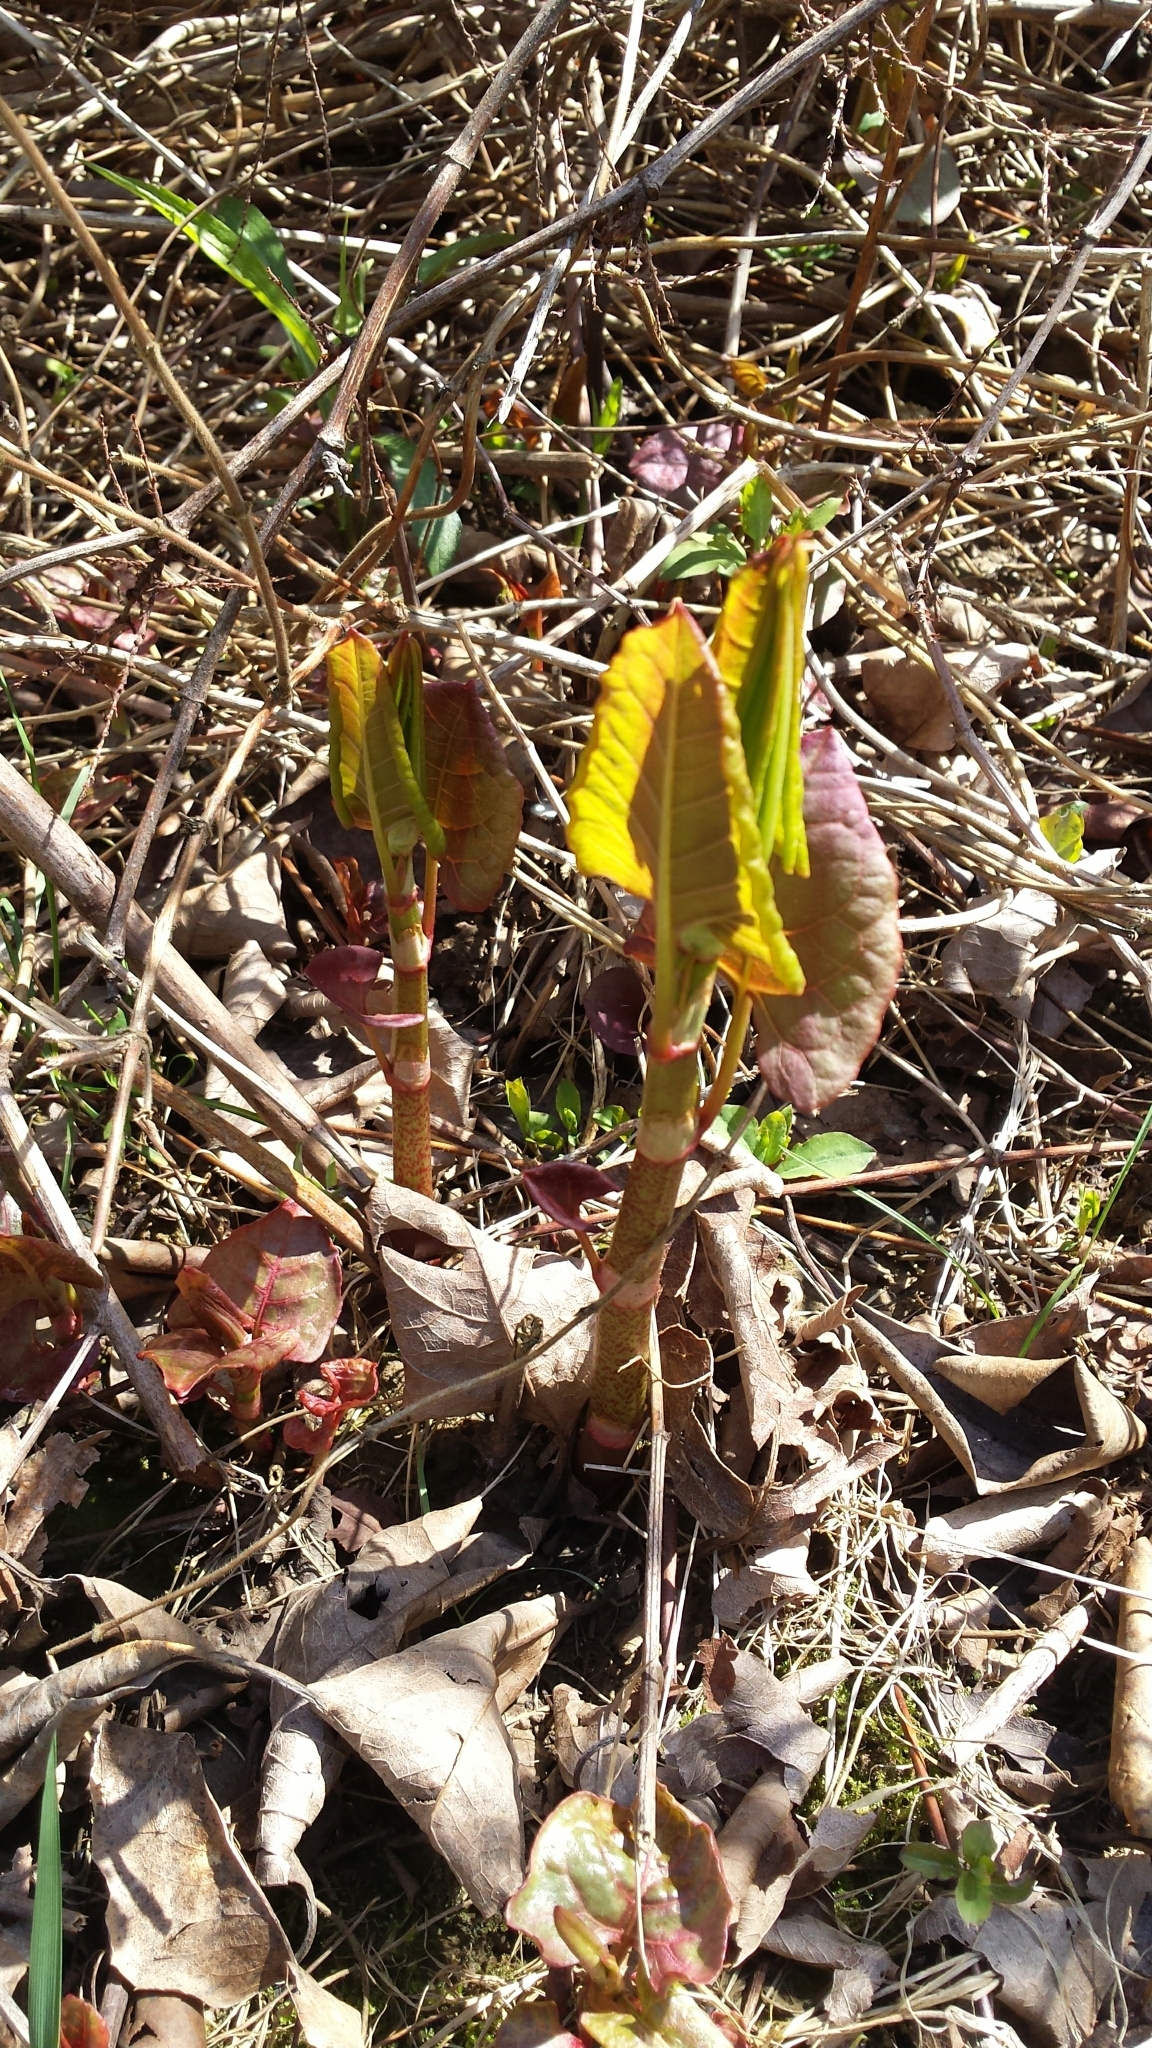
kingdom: Plantae
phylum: Tracheophyta
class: Magnoliopsida
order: Caryophyllales
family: Polygonaceae
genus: Reynoutria
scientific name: Reynoutria japonica
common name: Japanese knotweed
